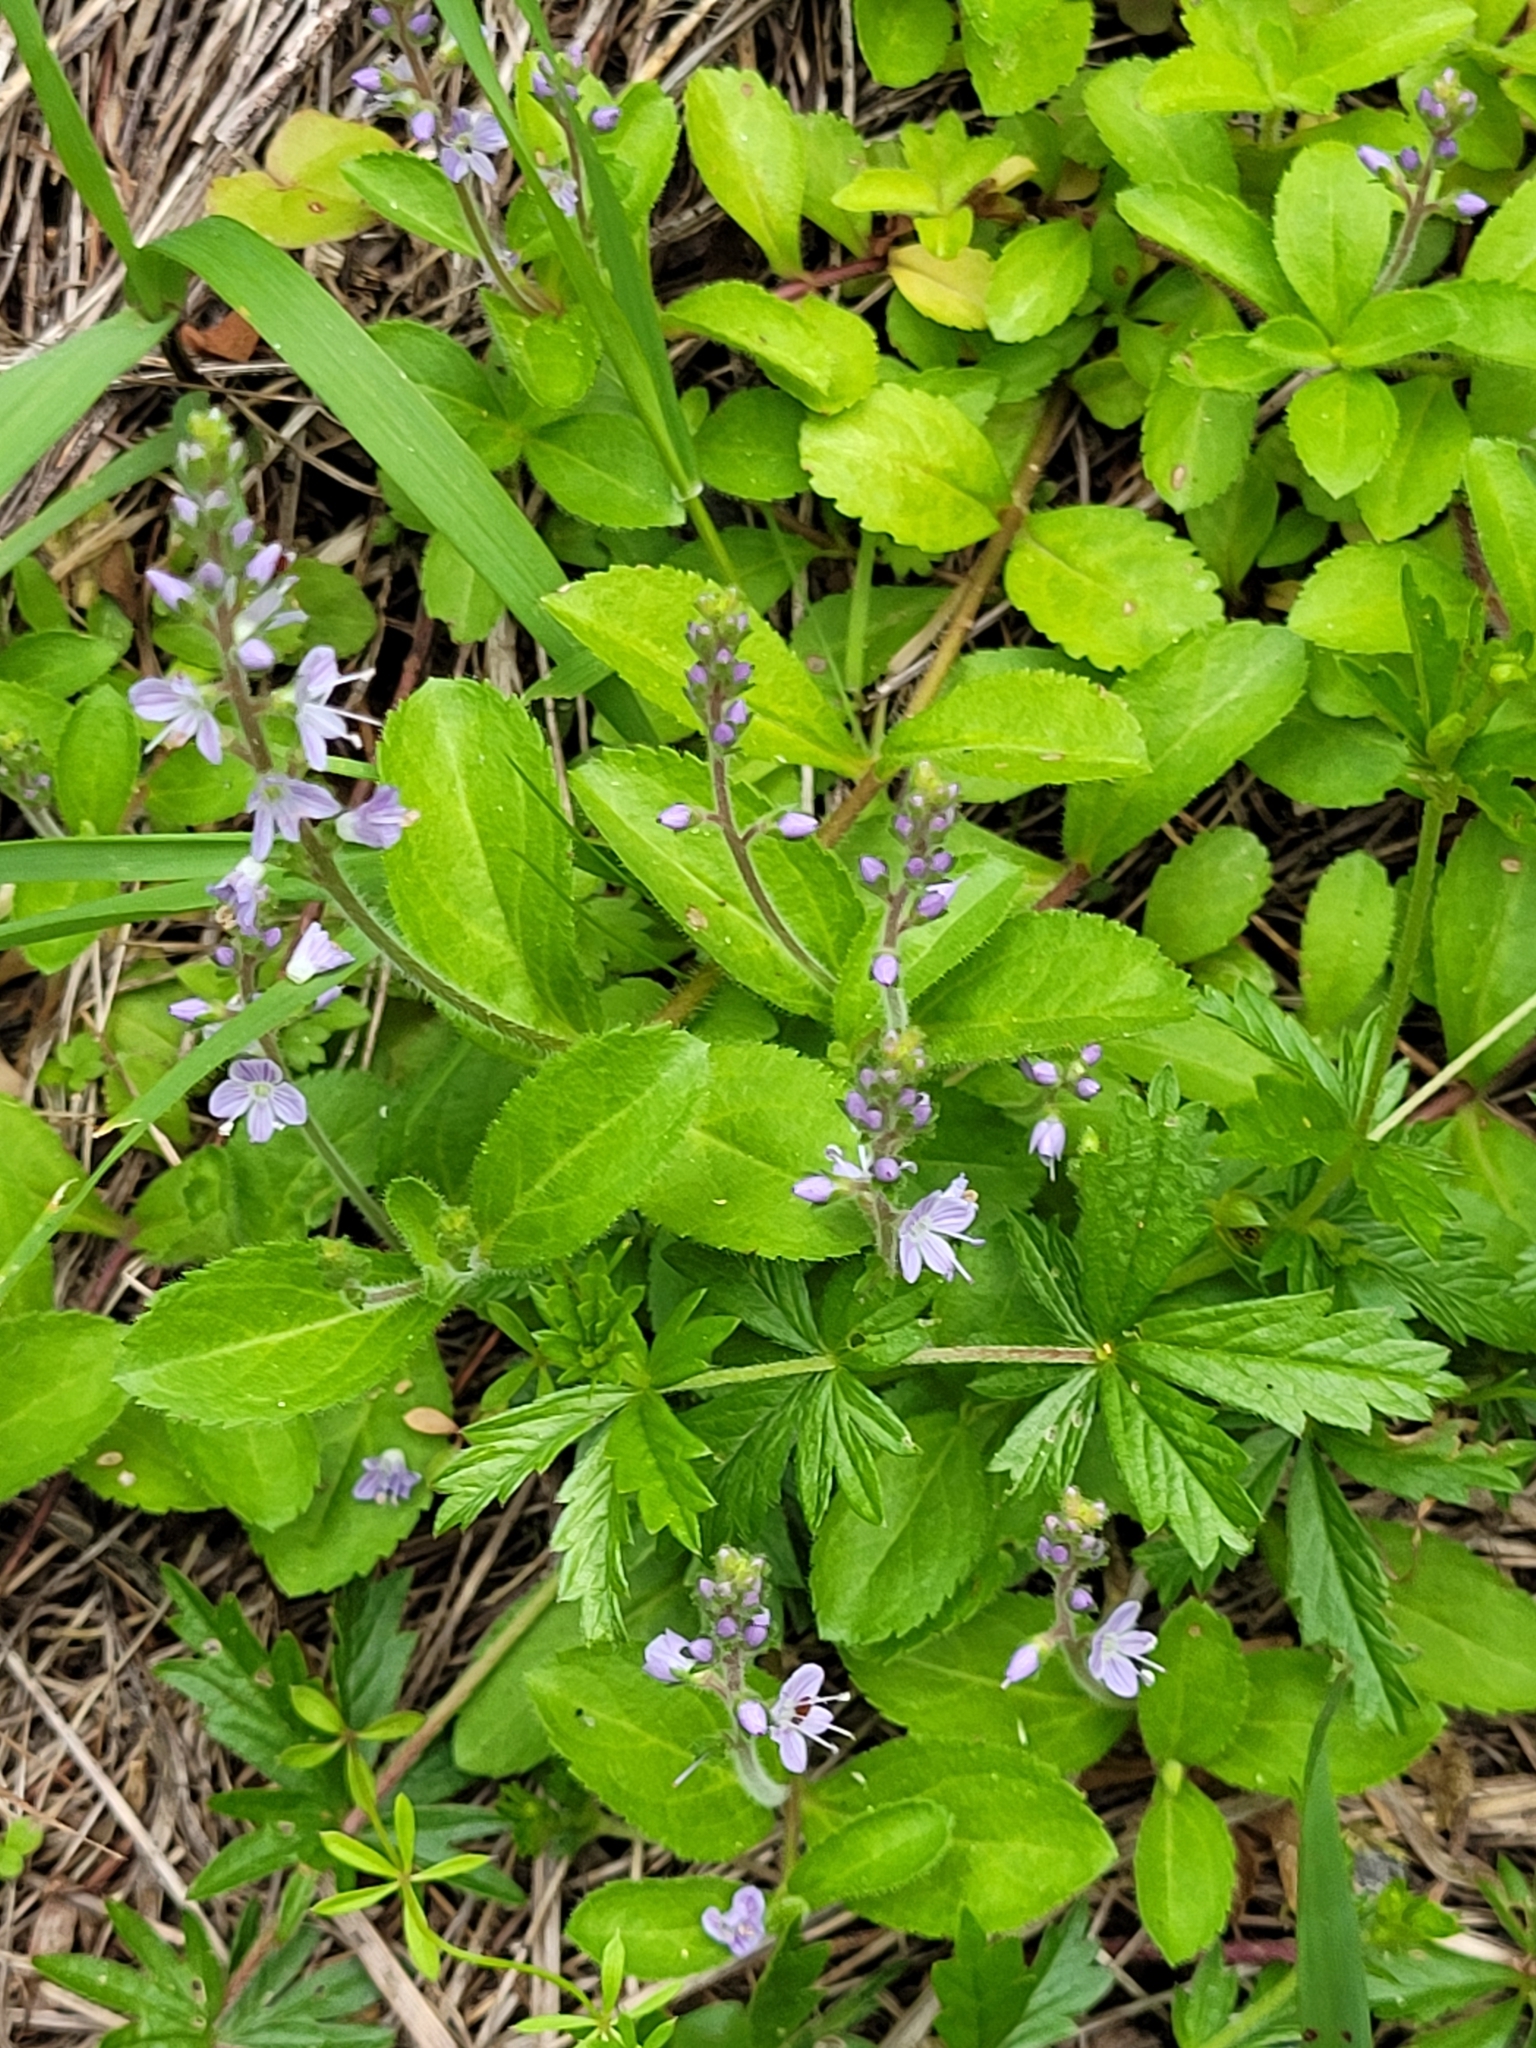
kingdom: Plantae
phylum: Tracheophyta
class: Magnoliopsida
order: Lamiales
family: Plantaginaceae
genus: Veronica
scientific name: Veronica officinalis
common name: Common speedwell
